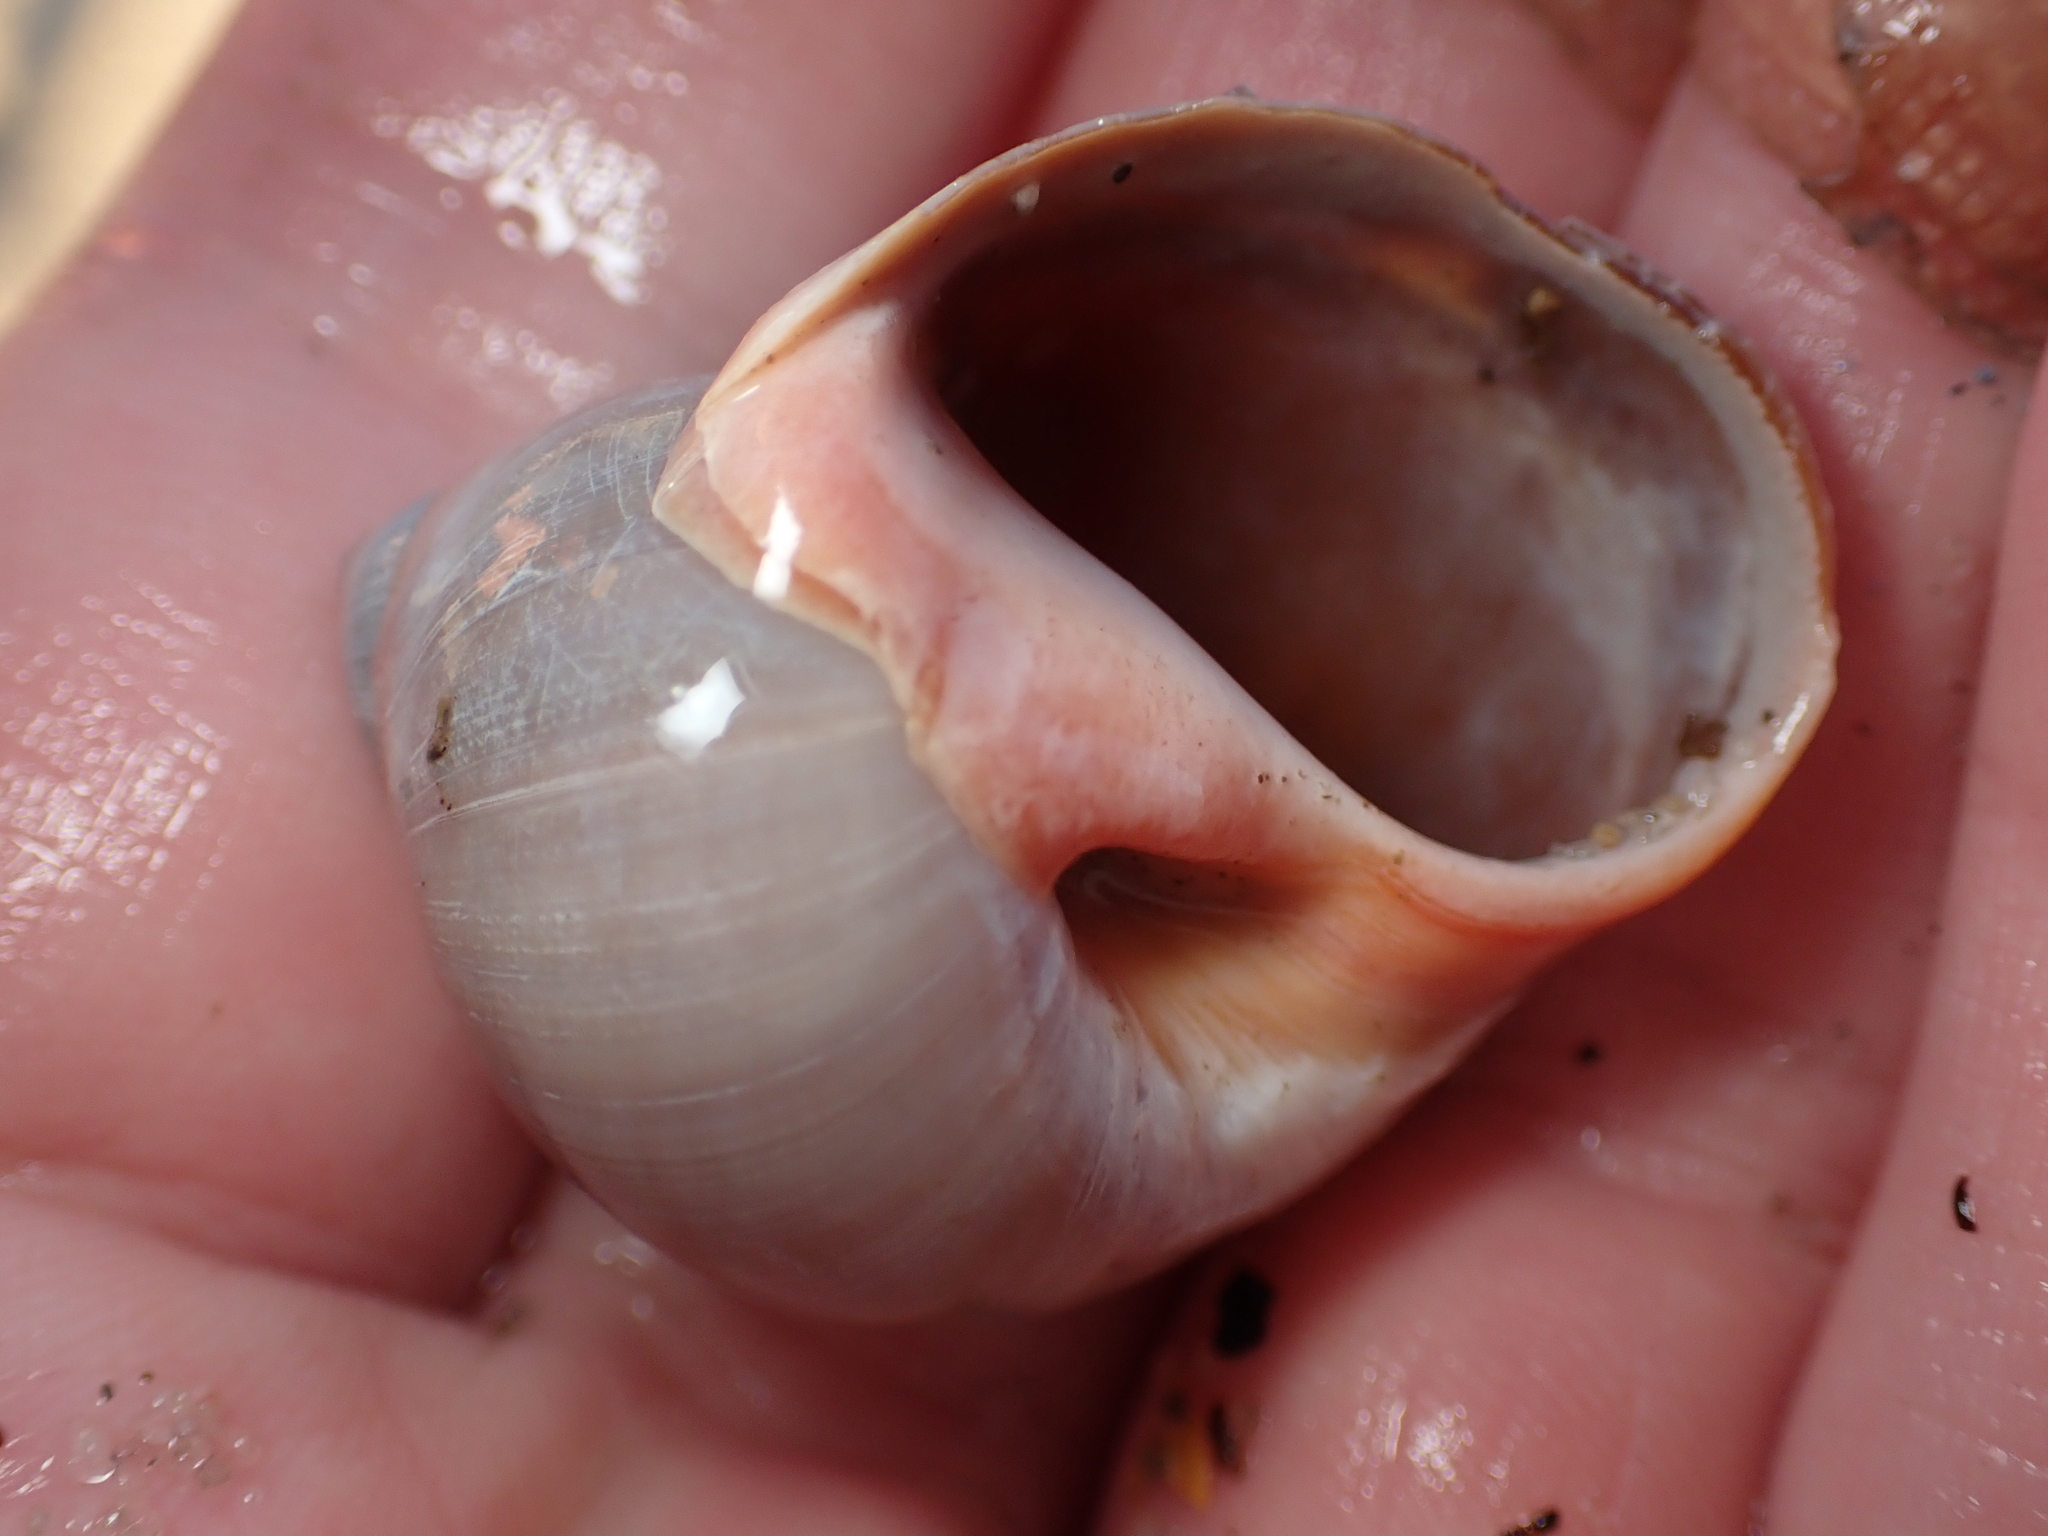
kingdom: Animalia
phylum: Mollusca
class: Gastropoda
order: Littorinimorpha
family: Naticidae
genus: Conuber
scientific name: Conuber sordidum
